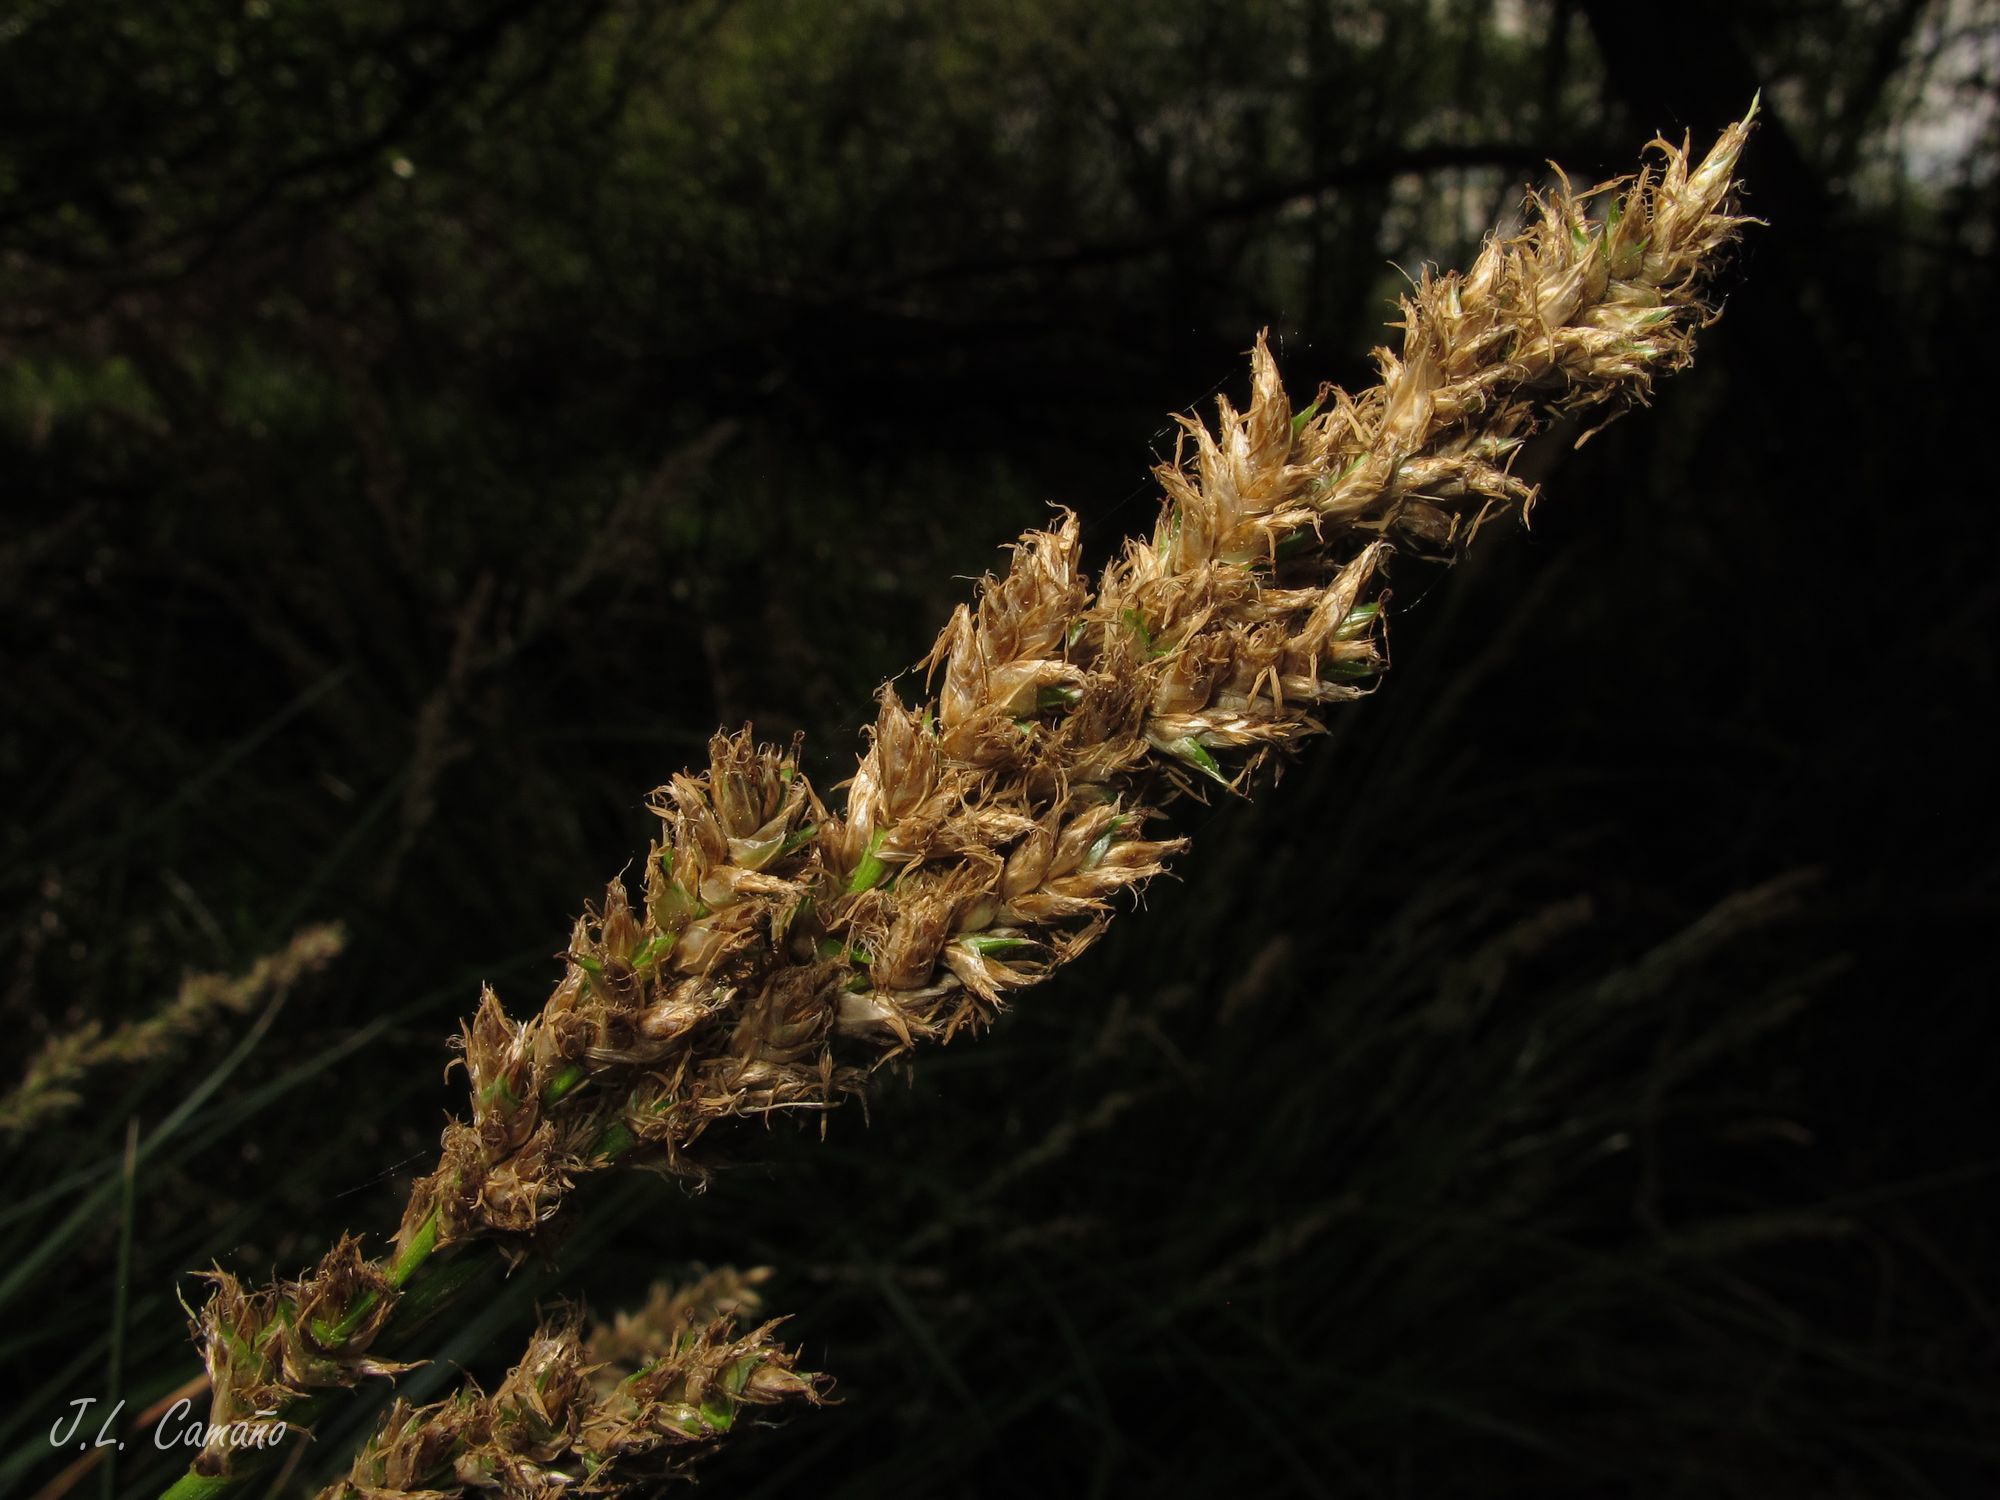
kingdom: Plantae
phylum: Tracheophyta
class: Liliopsida
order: Poales
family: Cyperaceae
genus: Carex
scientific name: Carex paniculata
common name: Greater tussock-sedge
